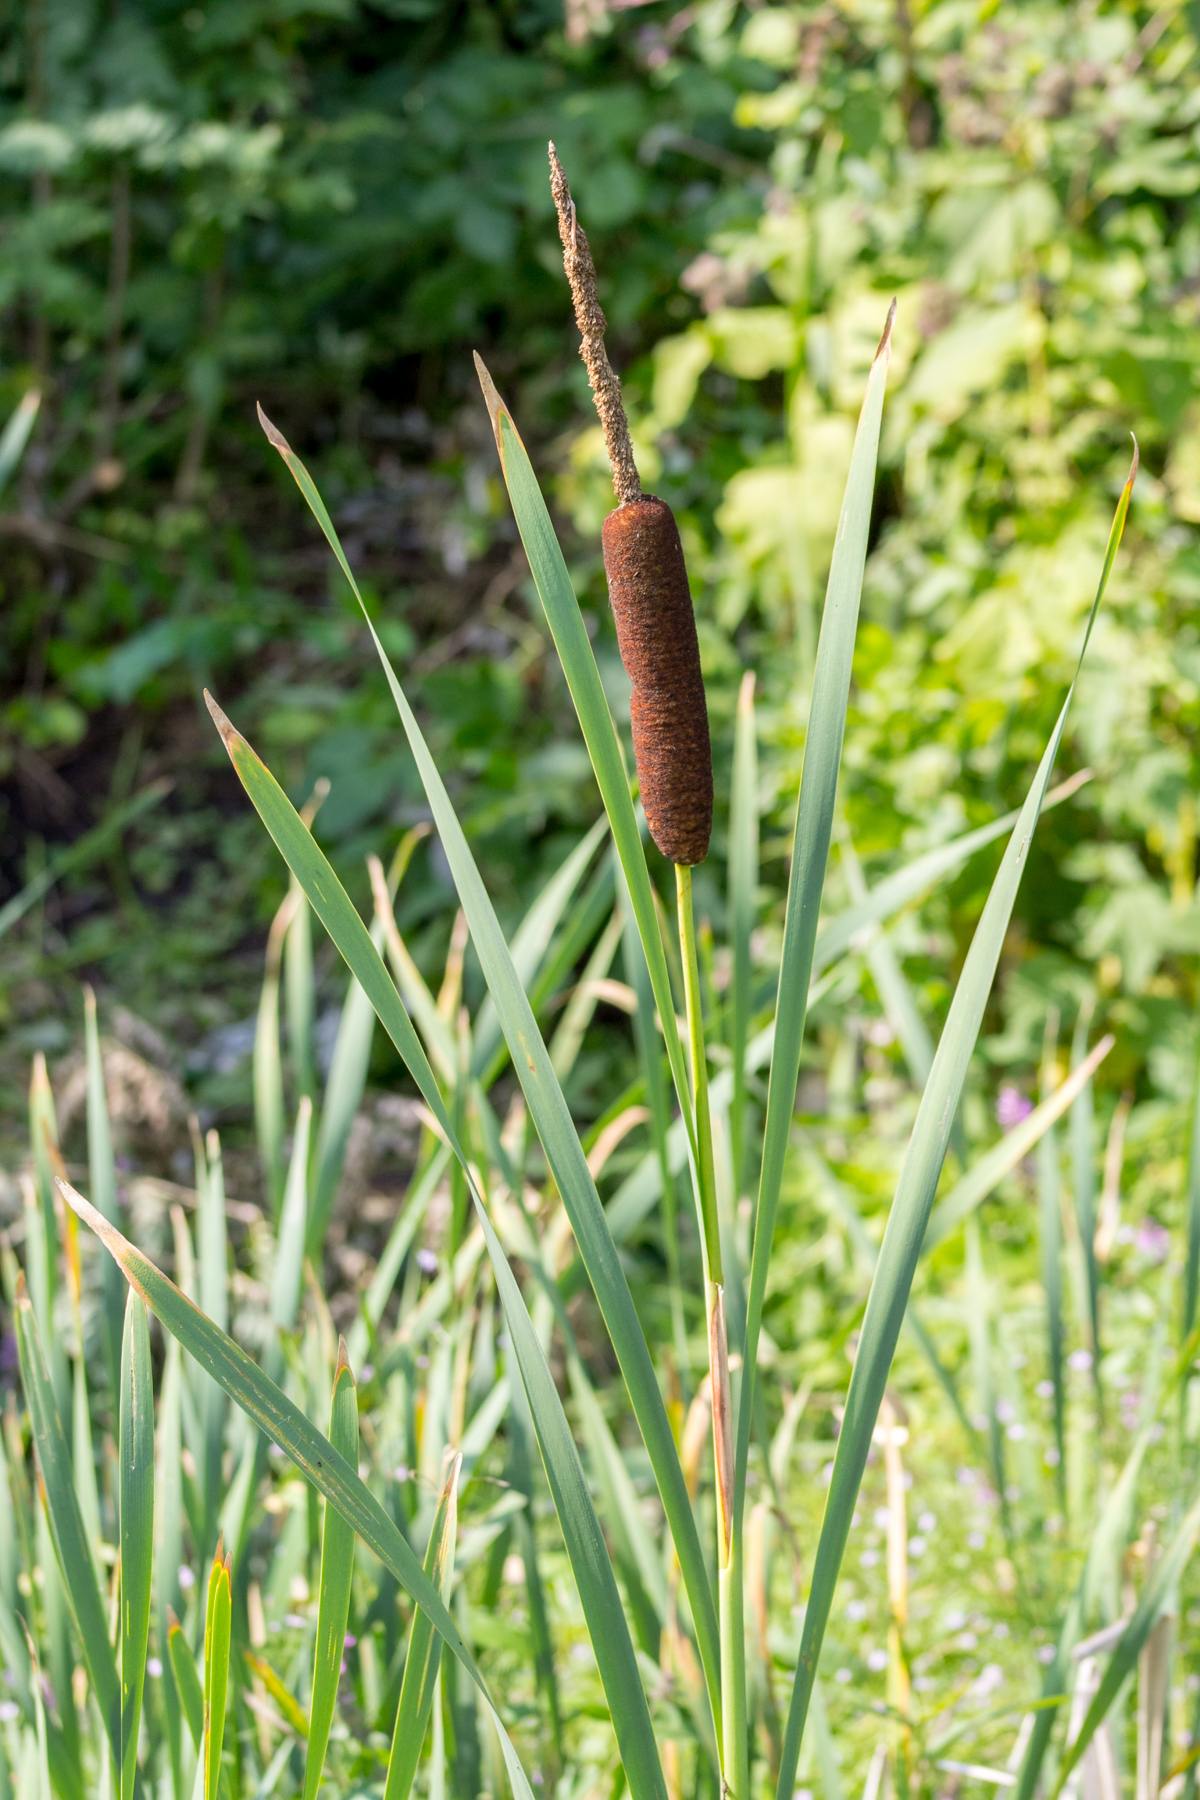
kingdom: Plantae
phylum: Tracheophyta
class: Liliopsida
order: Poales
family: Typhaceae
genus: Typha
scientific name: Typha latifolia
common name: Broadleaf cattail
